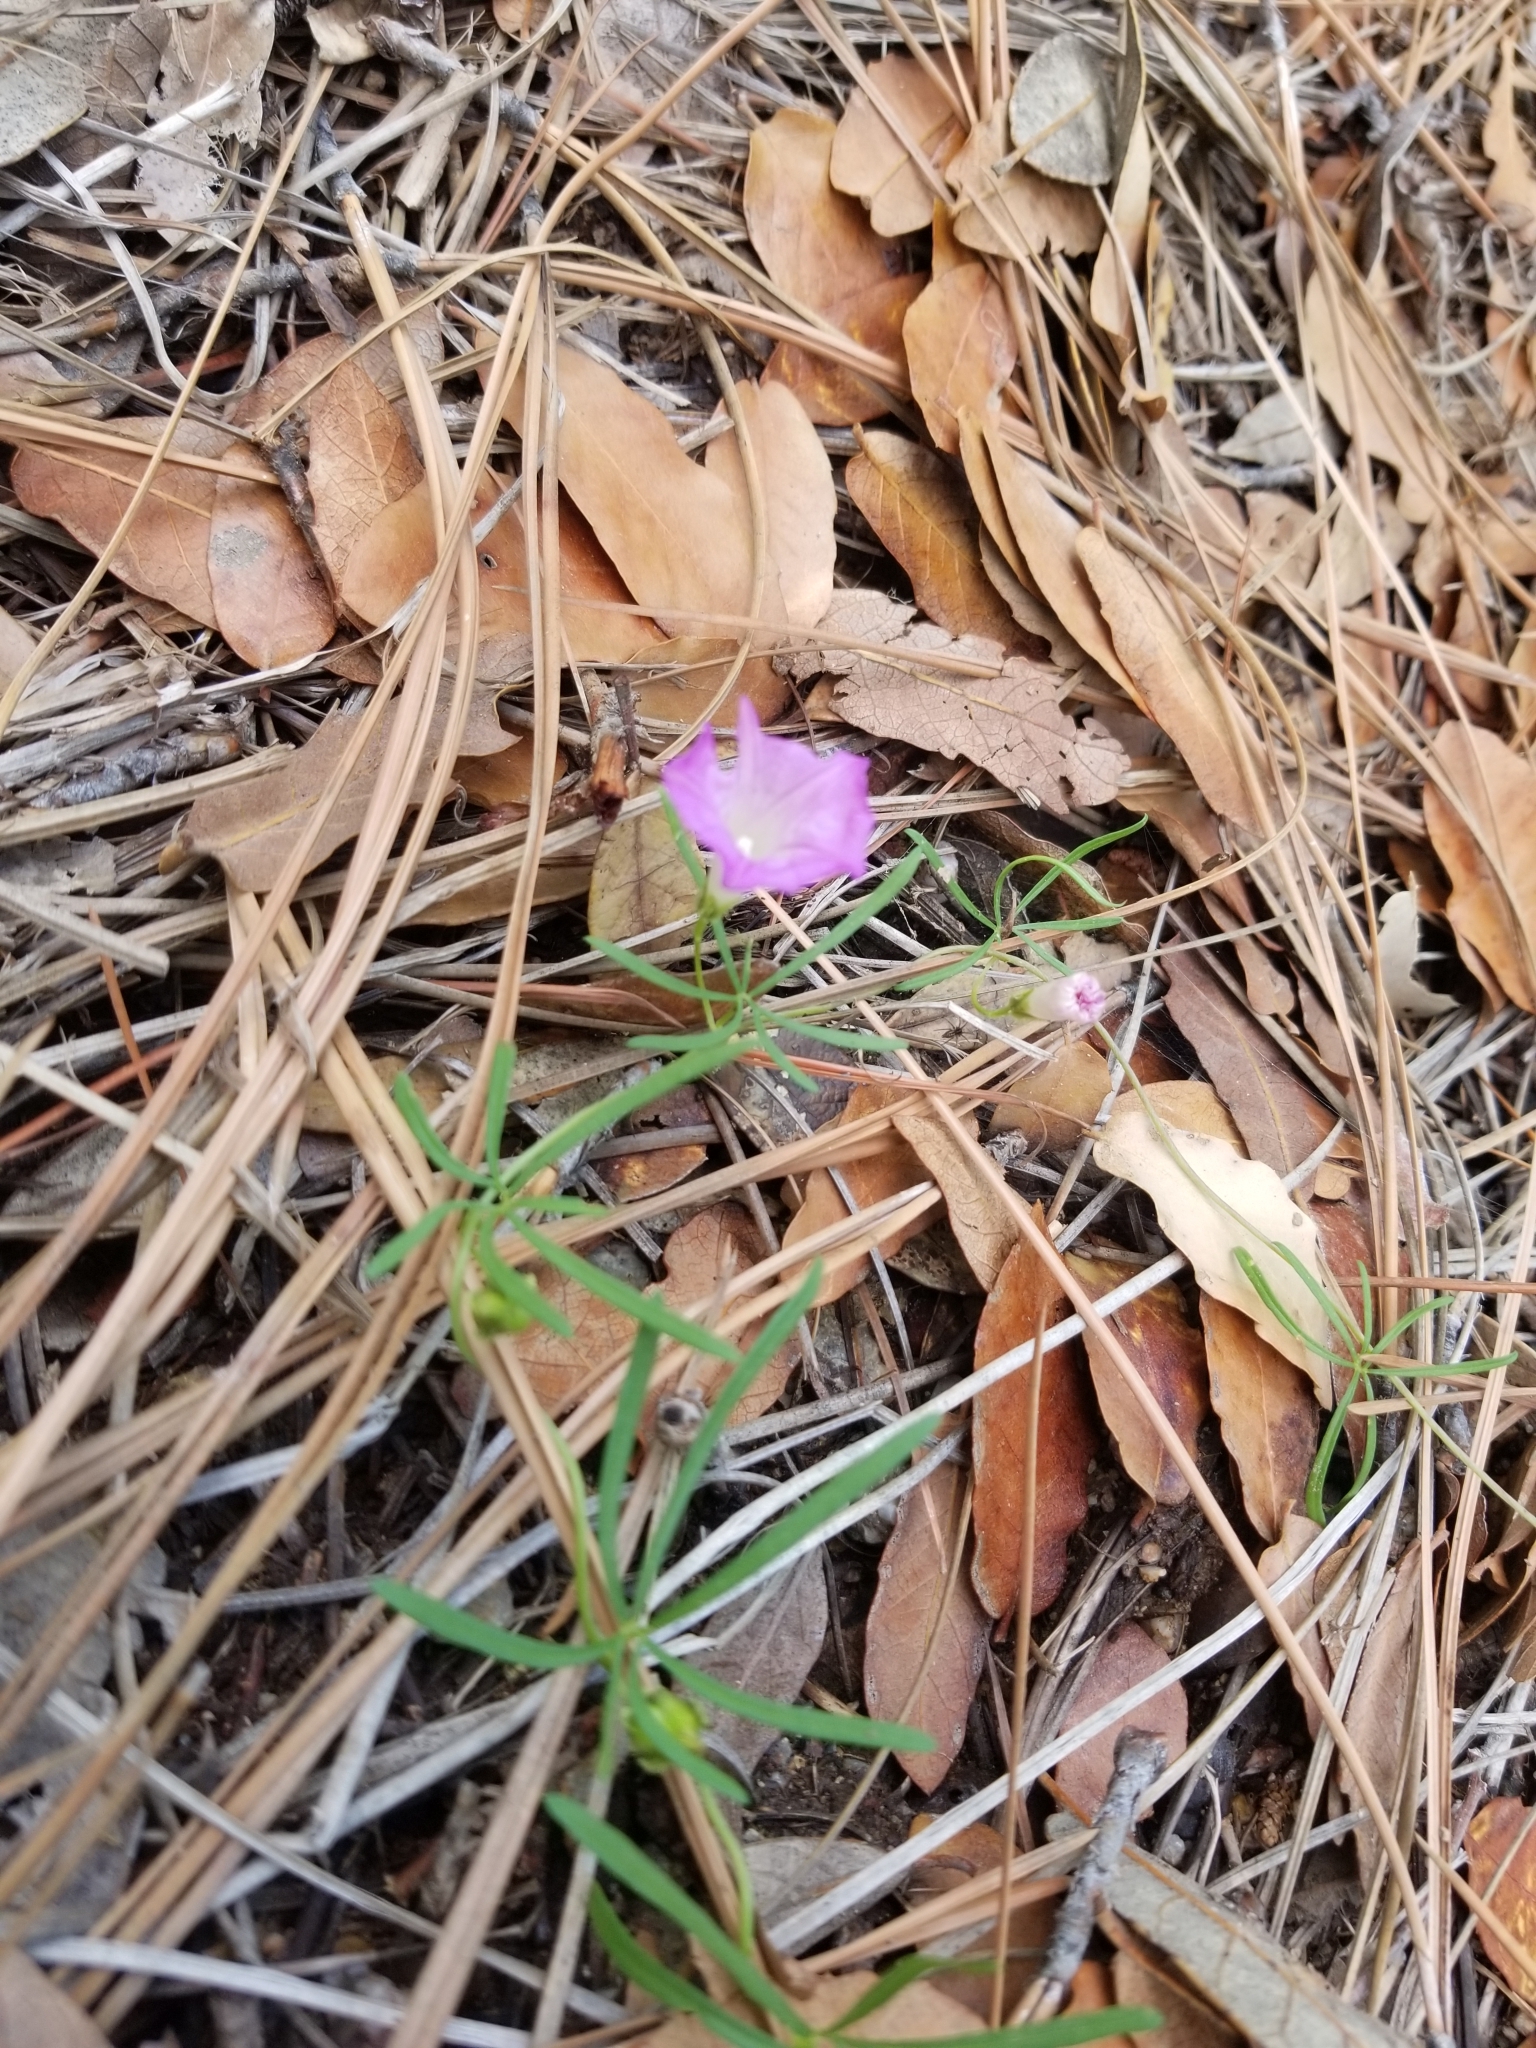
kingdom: Plantae
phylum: Tracheophyta
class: Magnoliopsida
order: Solanales
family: Convolvulaceae
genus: Ipomoea
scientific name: Ipomoea plummerae
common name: Plummer's morning-glory
